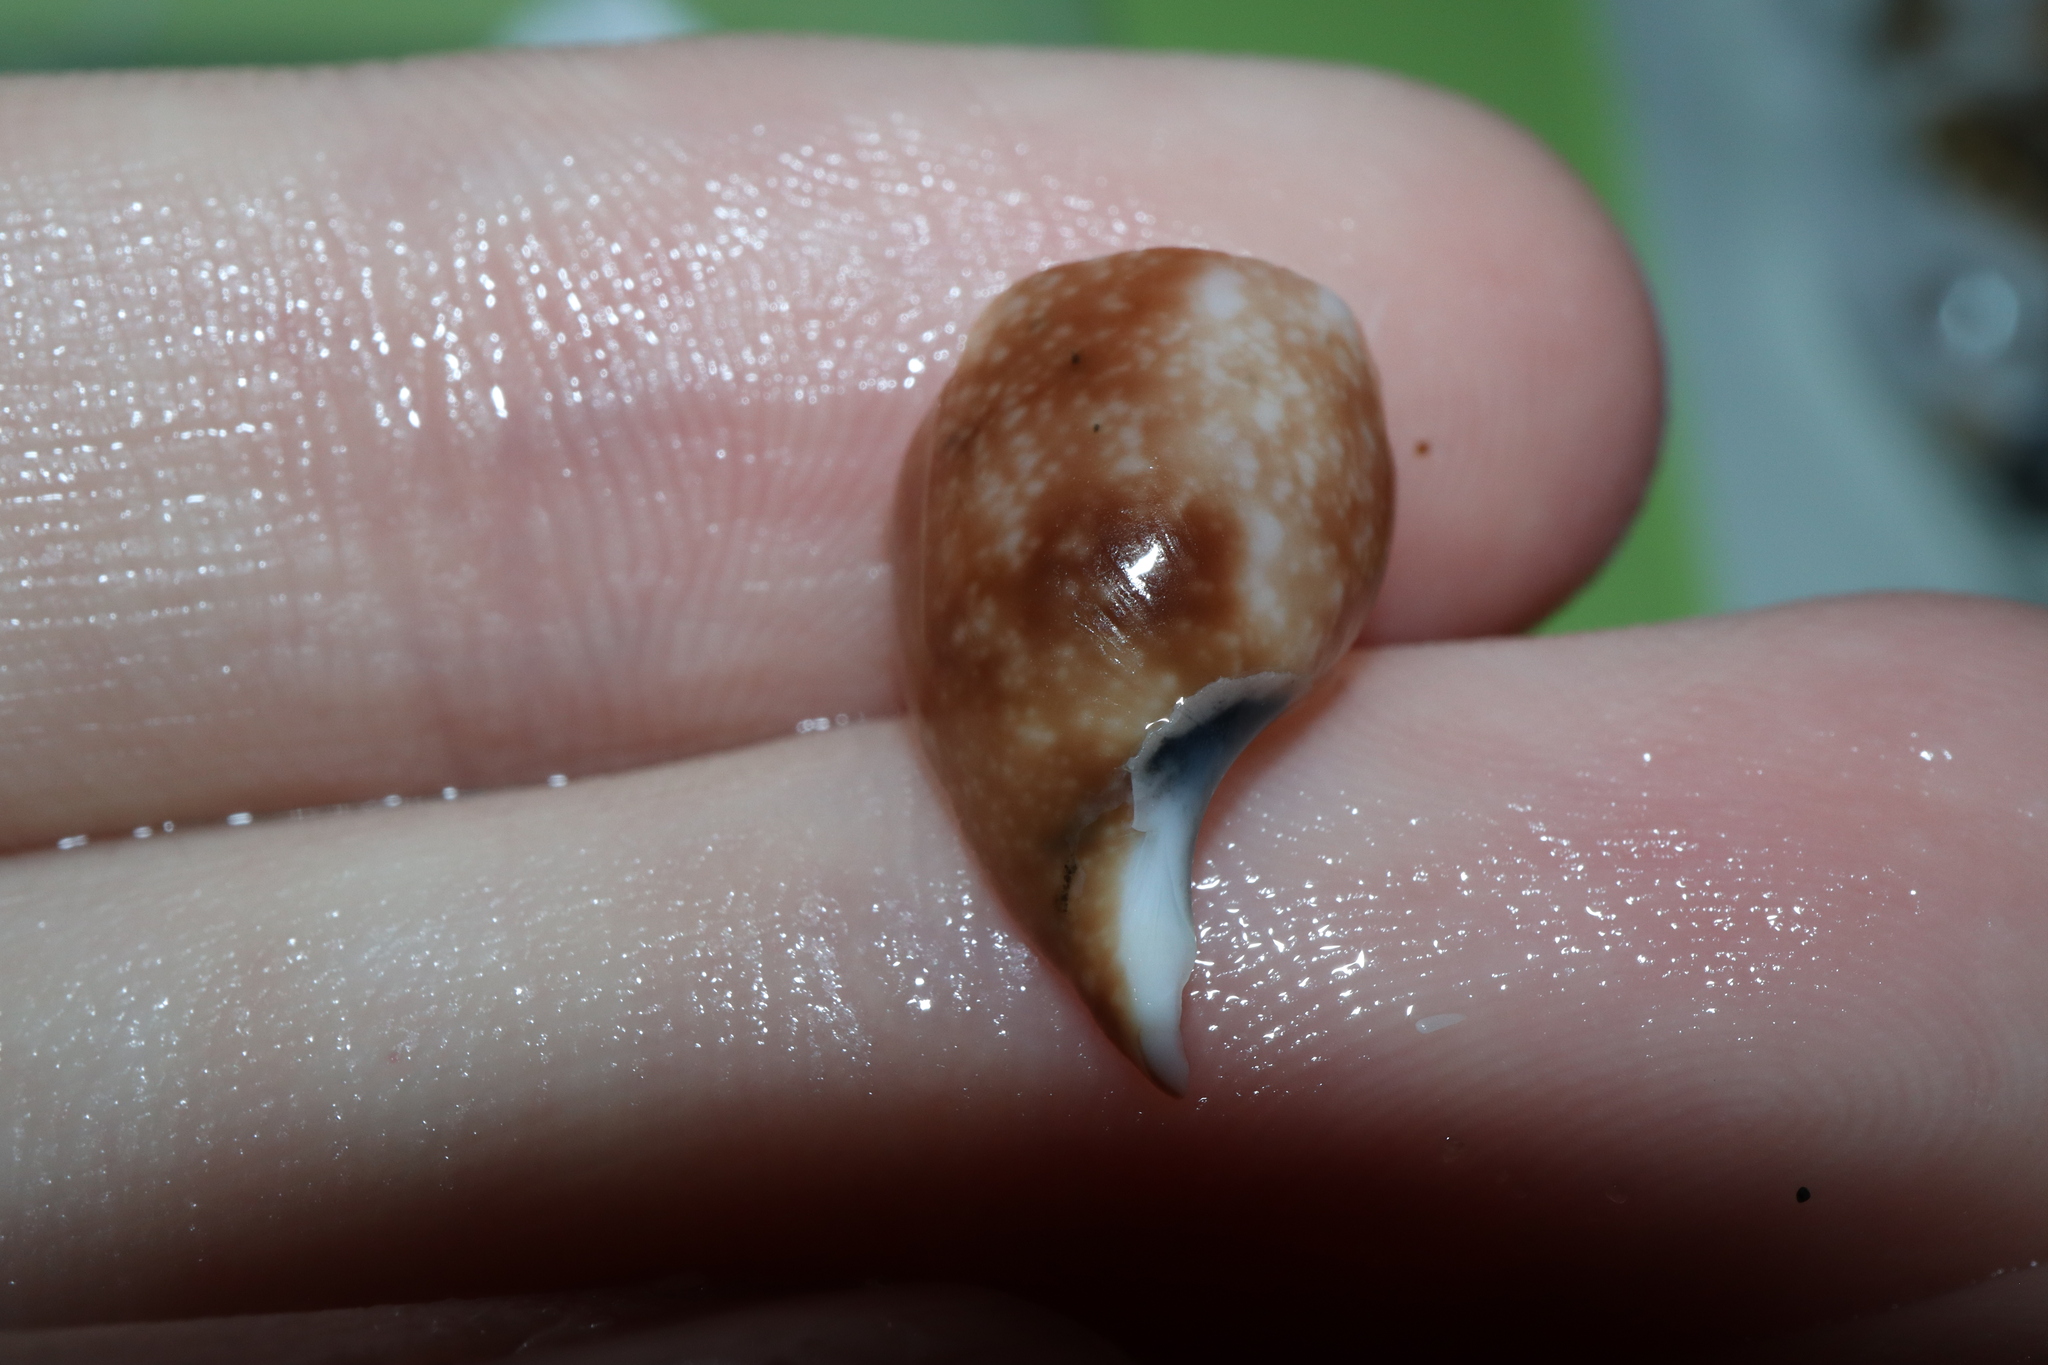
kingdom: Animalia
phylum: Mollusca
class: Gastropoda
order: Cephalaspidea
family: Bullidae
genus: Bulla
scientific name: Bulla mabillei
